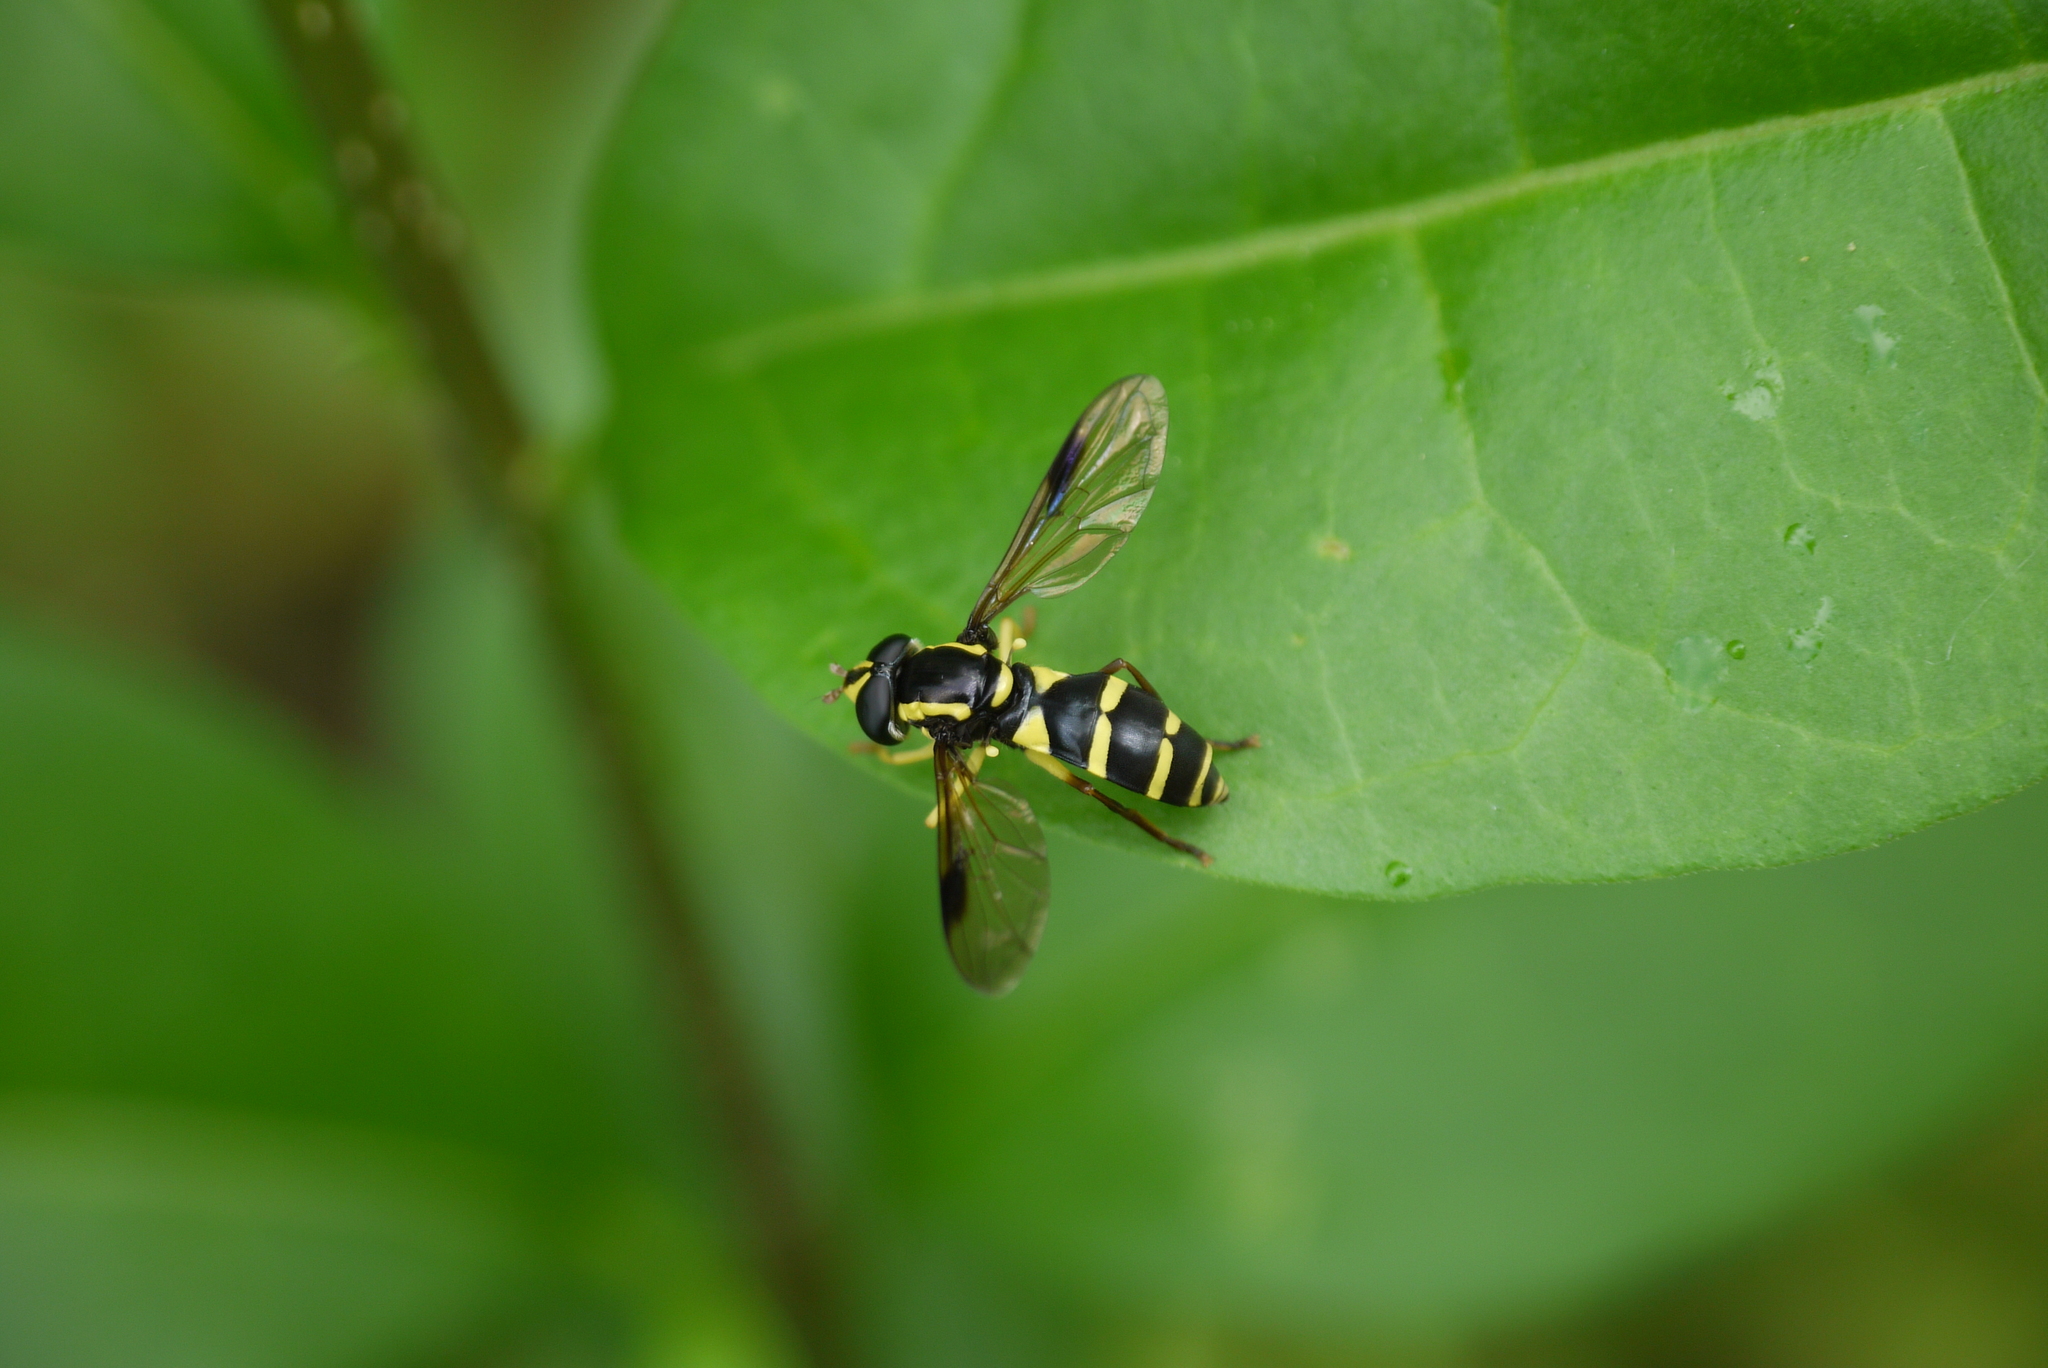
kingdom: Animalia
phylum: Arthropoda
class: Insecta
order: Diptera
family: Syrphidae
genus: Philhelius
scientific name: Philhelius pedissequum
